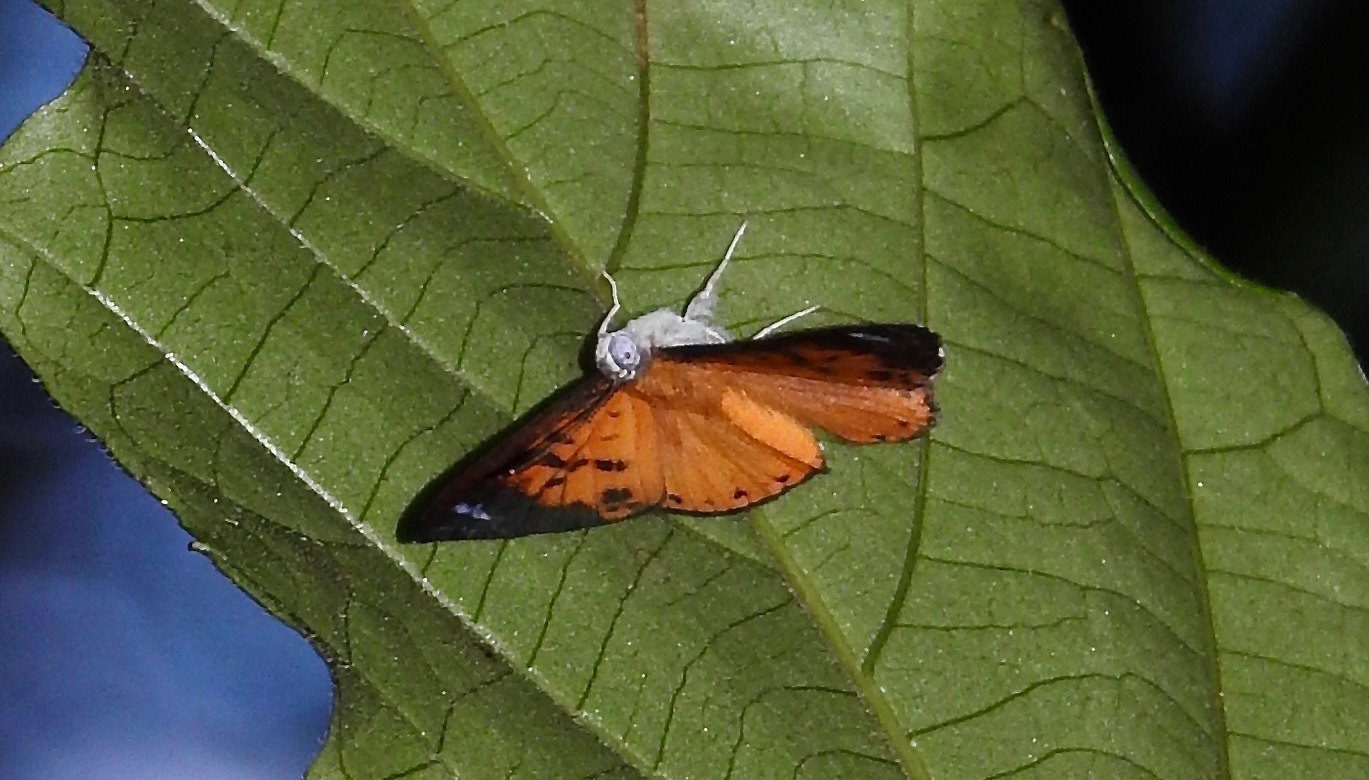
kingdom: Animalia
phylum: Arthropoda
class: Insecta
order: Lepidoptera
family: Riodinidae
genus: Polystichtis
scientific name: Polystichtis zeanger
